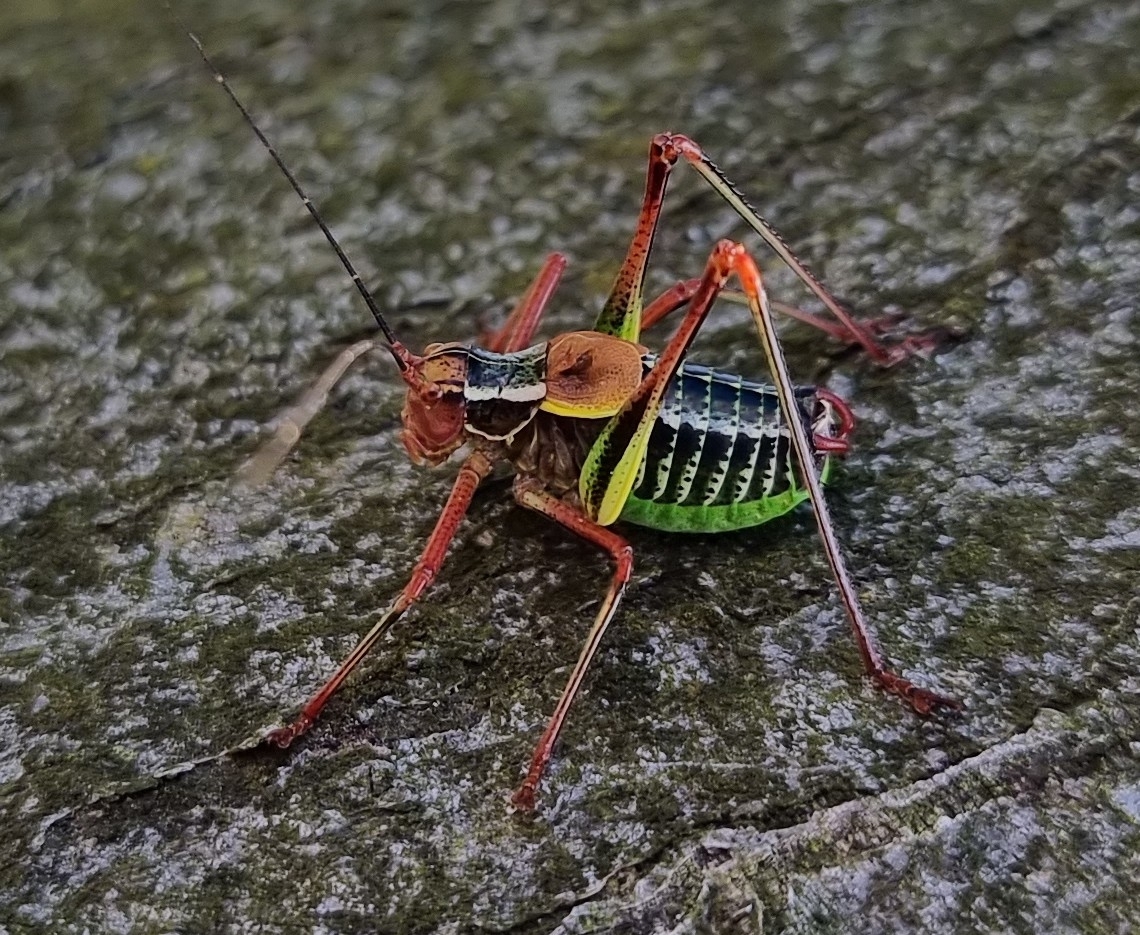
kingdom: Animalia
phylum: Arthropoda
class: Insecta
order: Orthoptera
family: Tettigoniidae
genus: Barbitistes
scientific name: Barbitistes constrictus
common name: Eastern saw-tailed bush cricket
